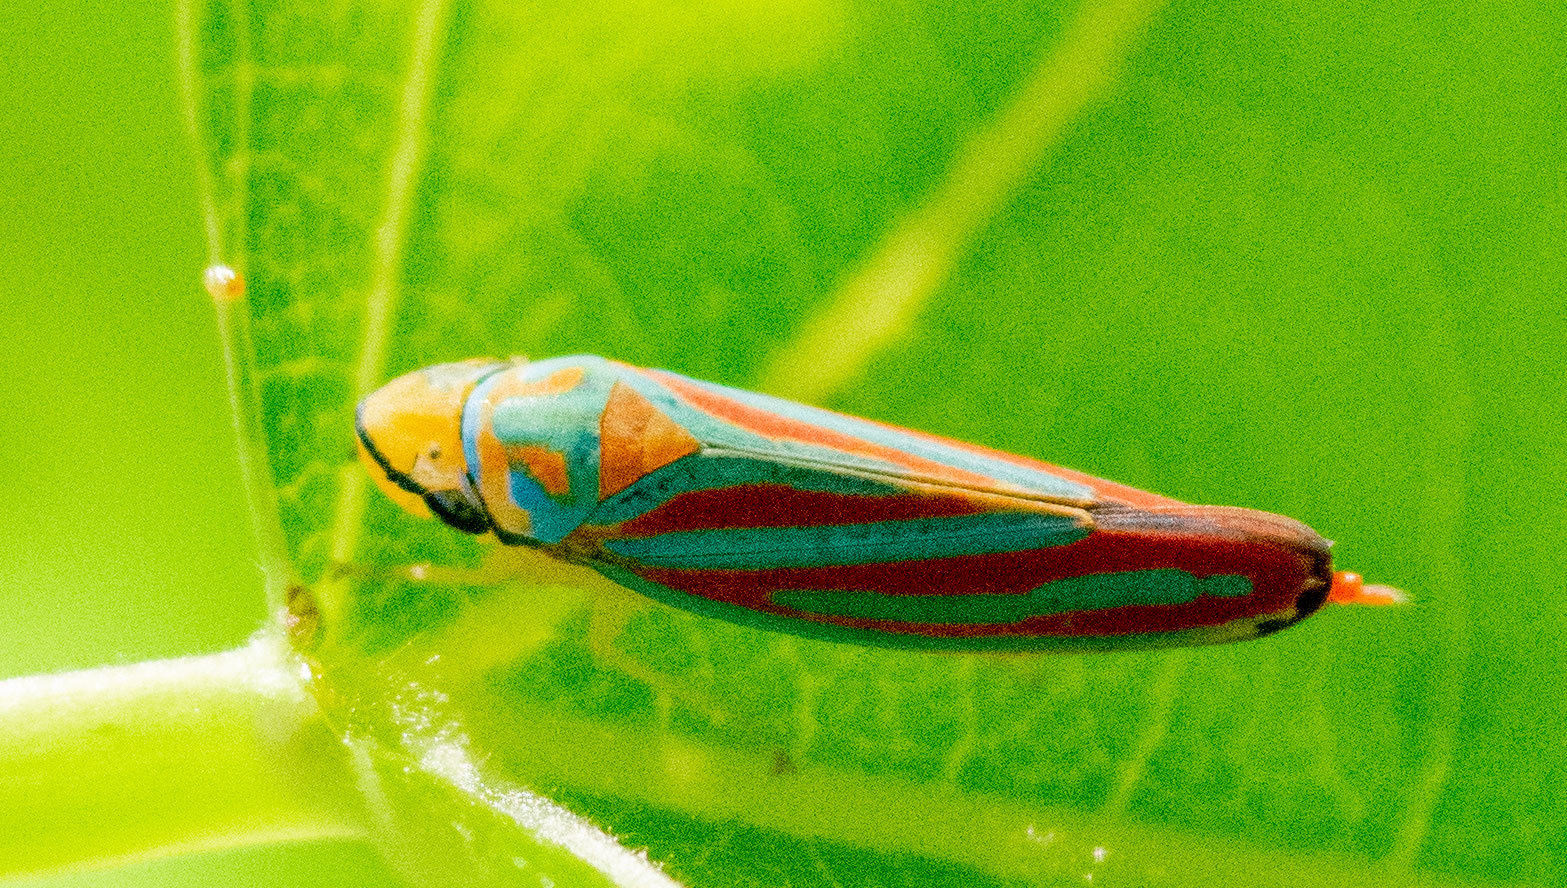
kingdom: Animalia
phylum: Arthropoda
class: Insecta
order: Hemiptera
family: Cicadellidae
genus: Graphocephala
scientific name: Graphocephala coccinea
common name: Candy-striped leafhopper
